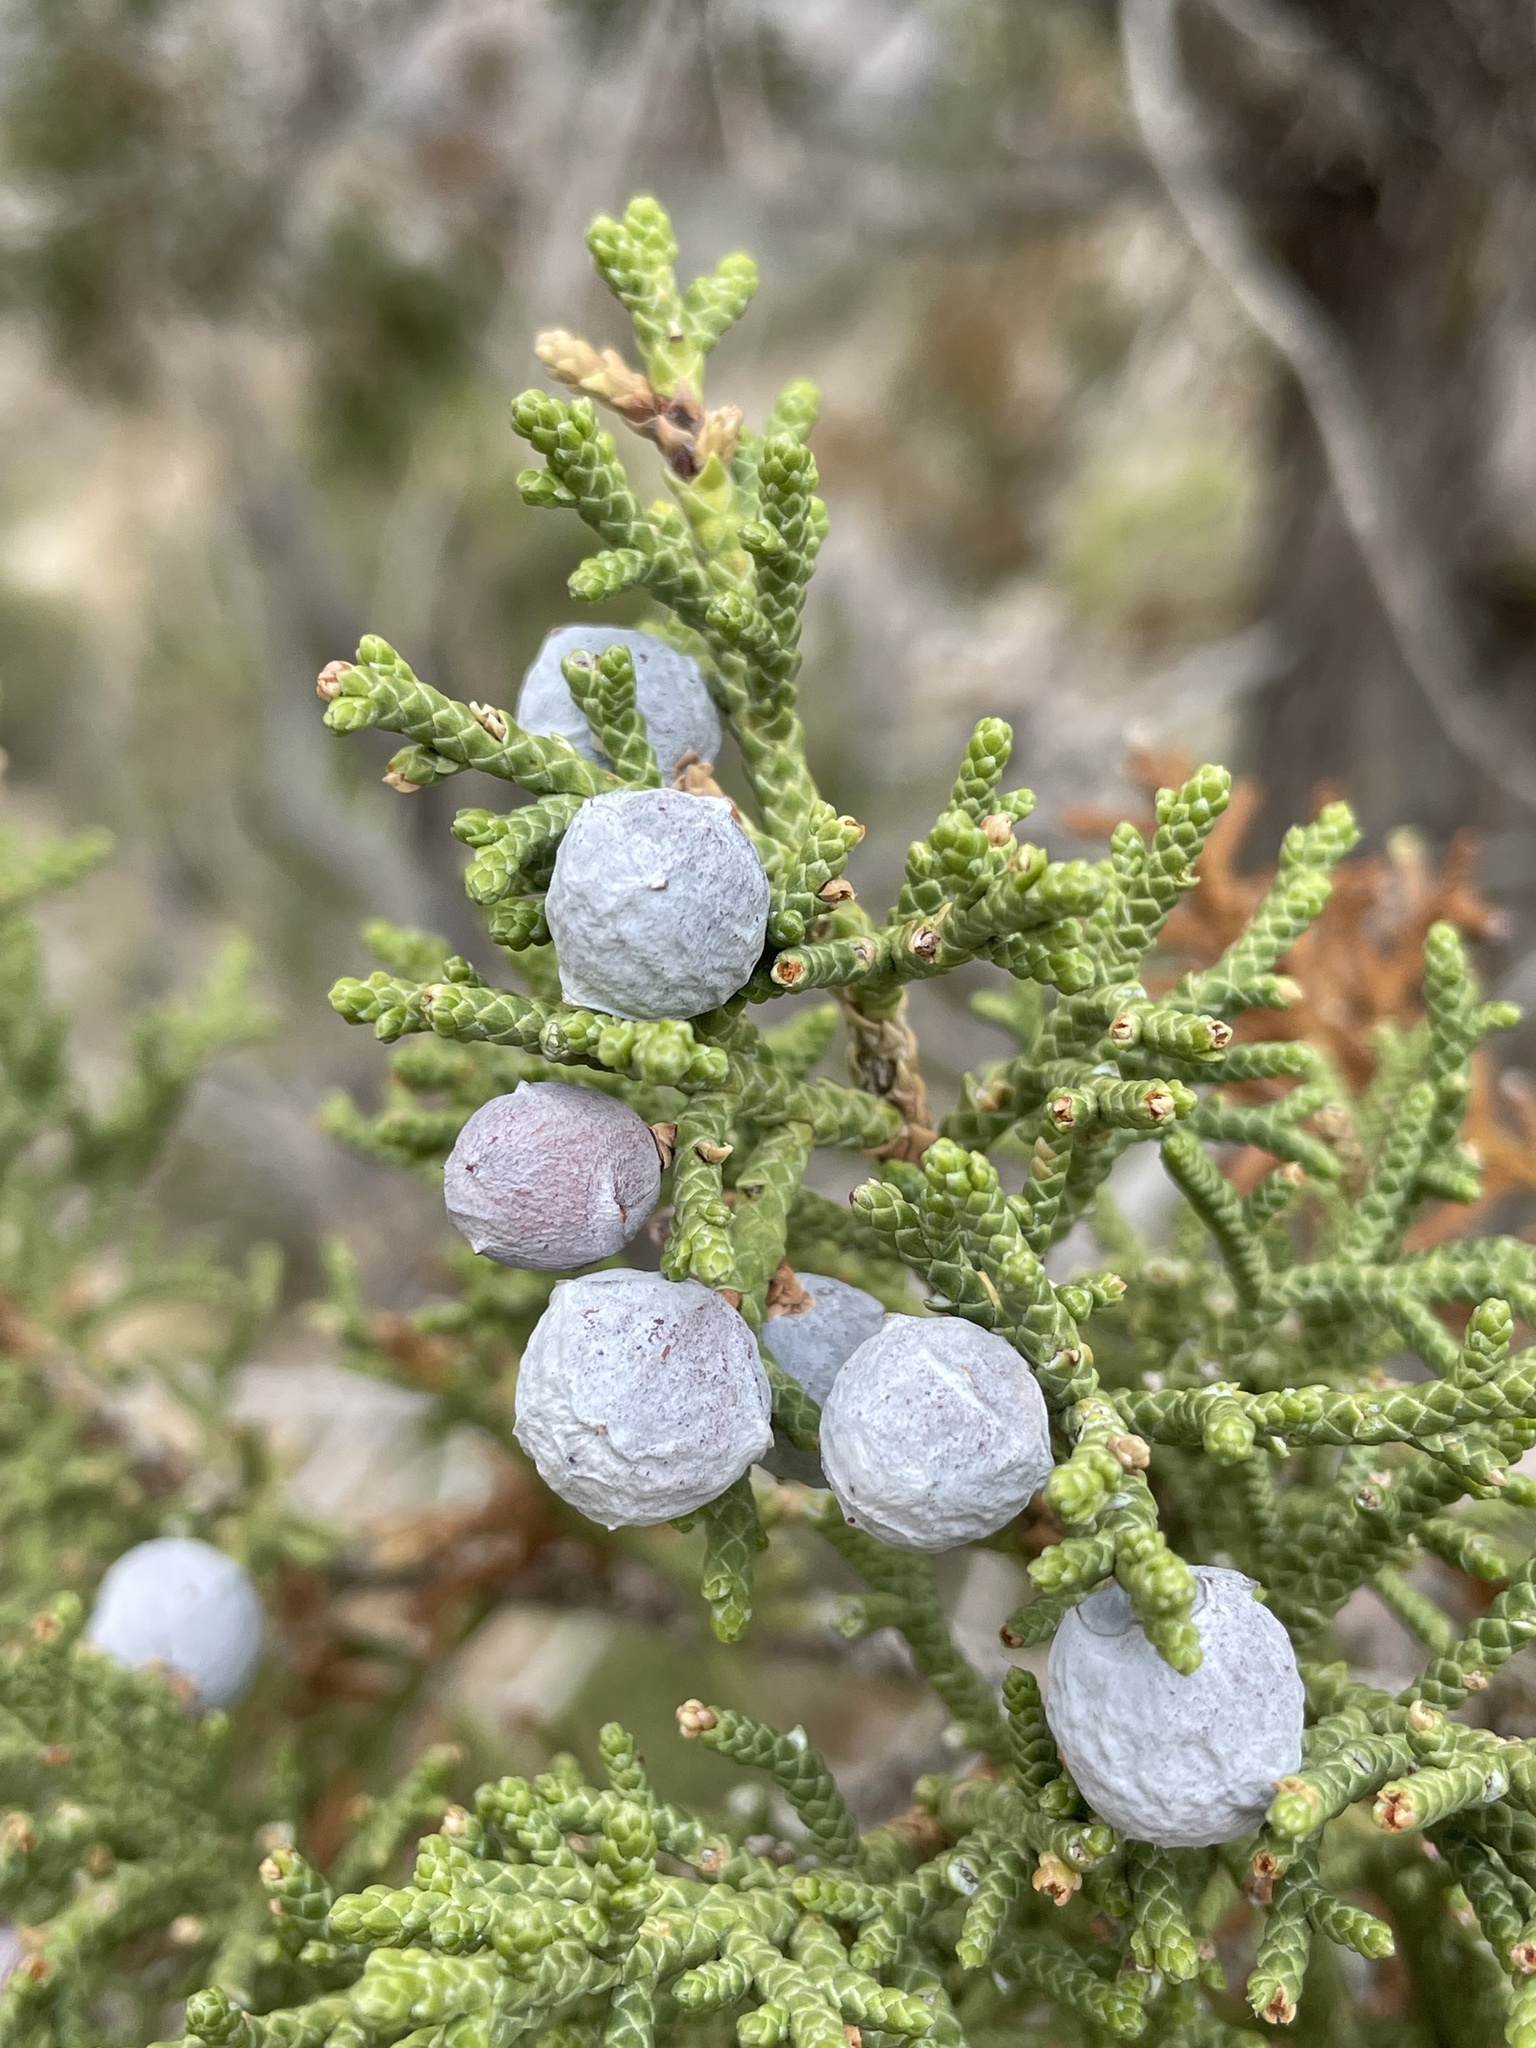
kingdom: Plantae
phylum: Tracheophyta
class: Pinopsida
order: Pinales
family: Cupressaceae
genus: Juniperus
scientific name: Juniperus osteosperma
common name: Utah juniper
